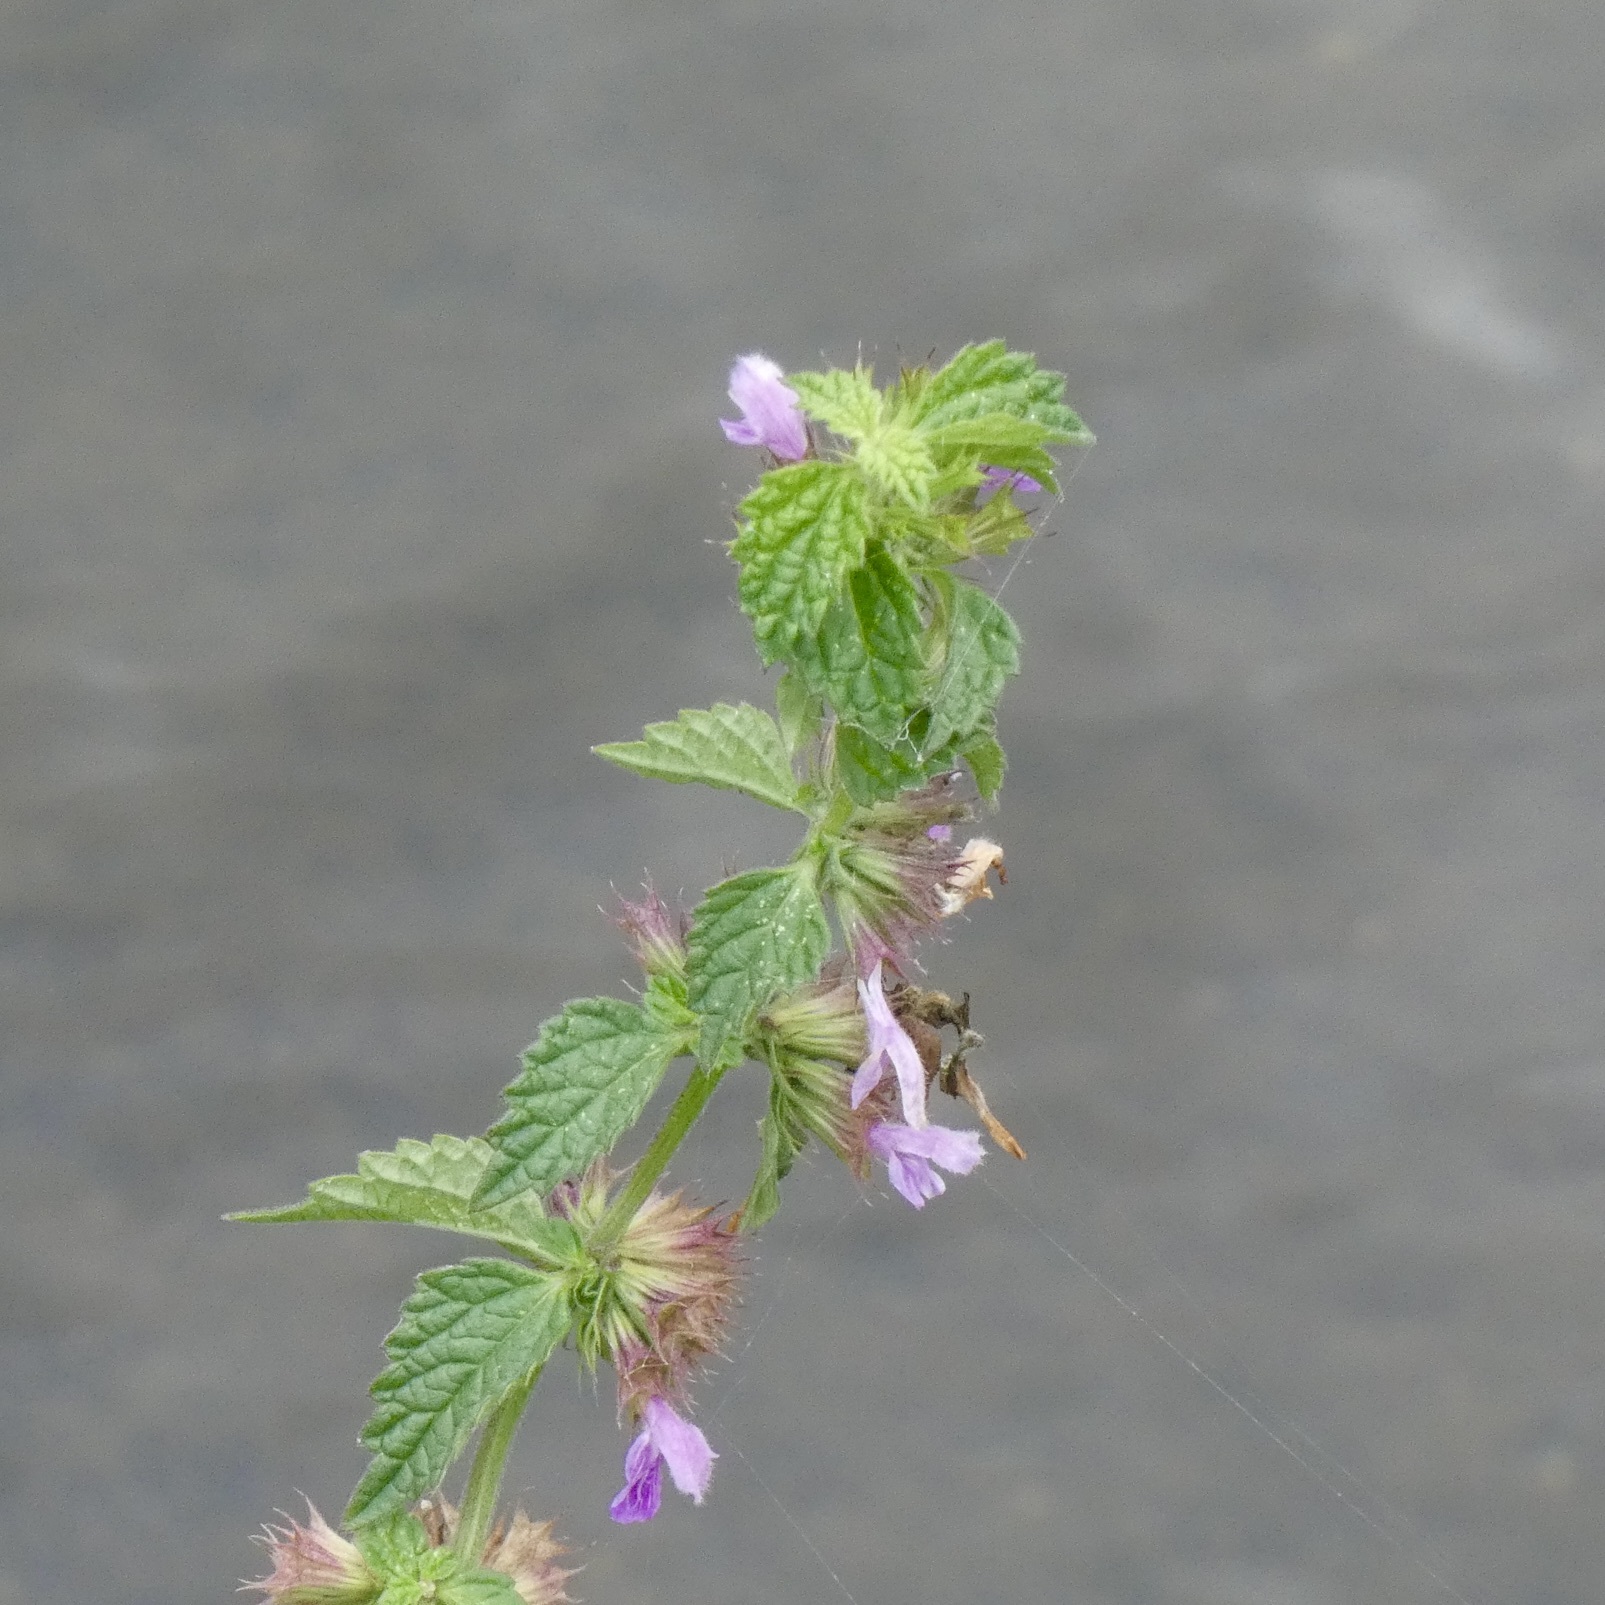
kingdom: Plantae
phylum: Tracheophyta
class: Magnoliopsida
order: Lamiales
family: Lamiaceae
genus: Ballota
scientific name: Ballota nigra
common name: Black horehound
